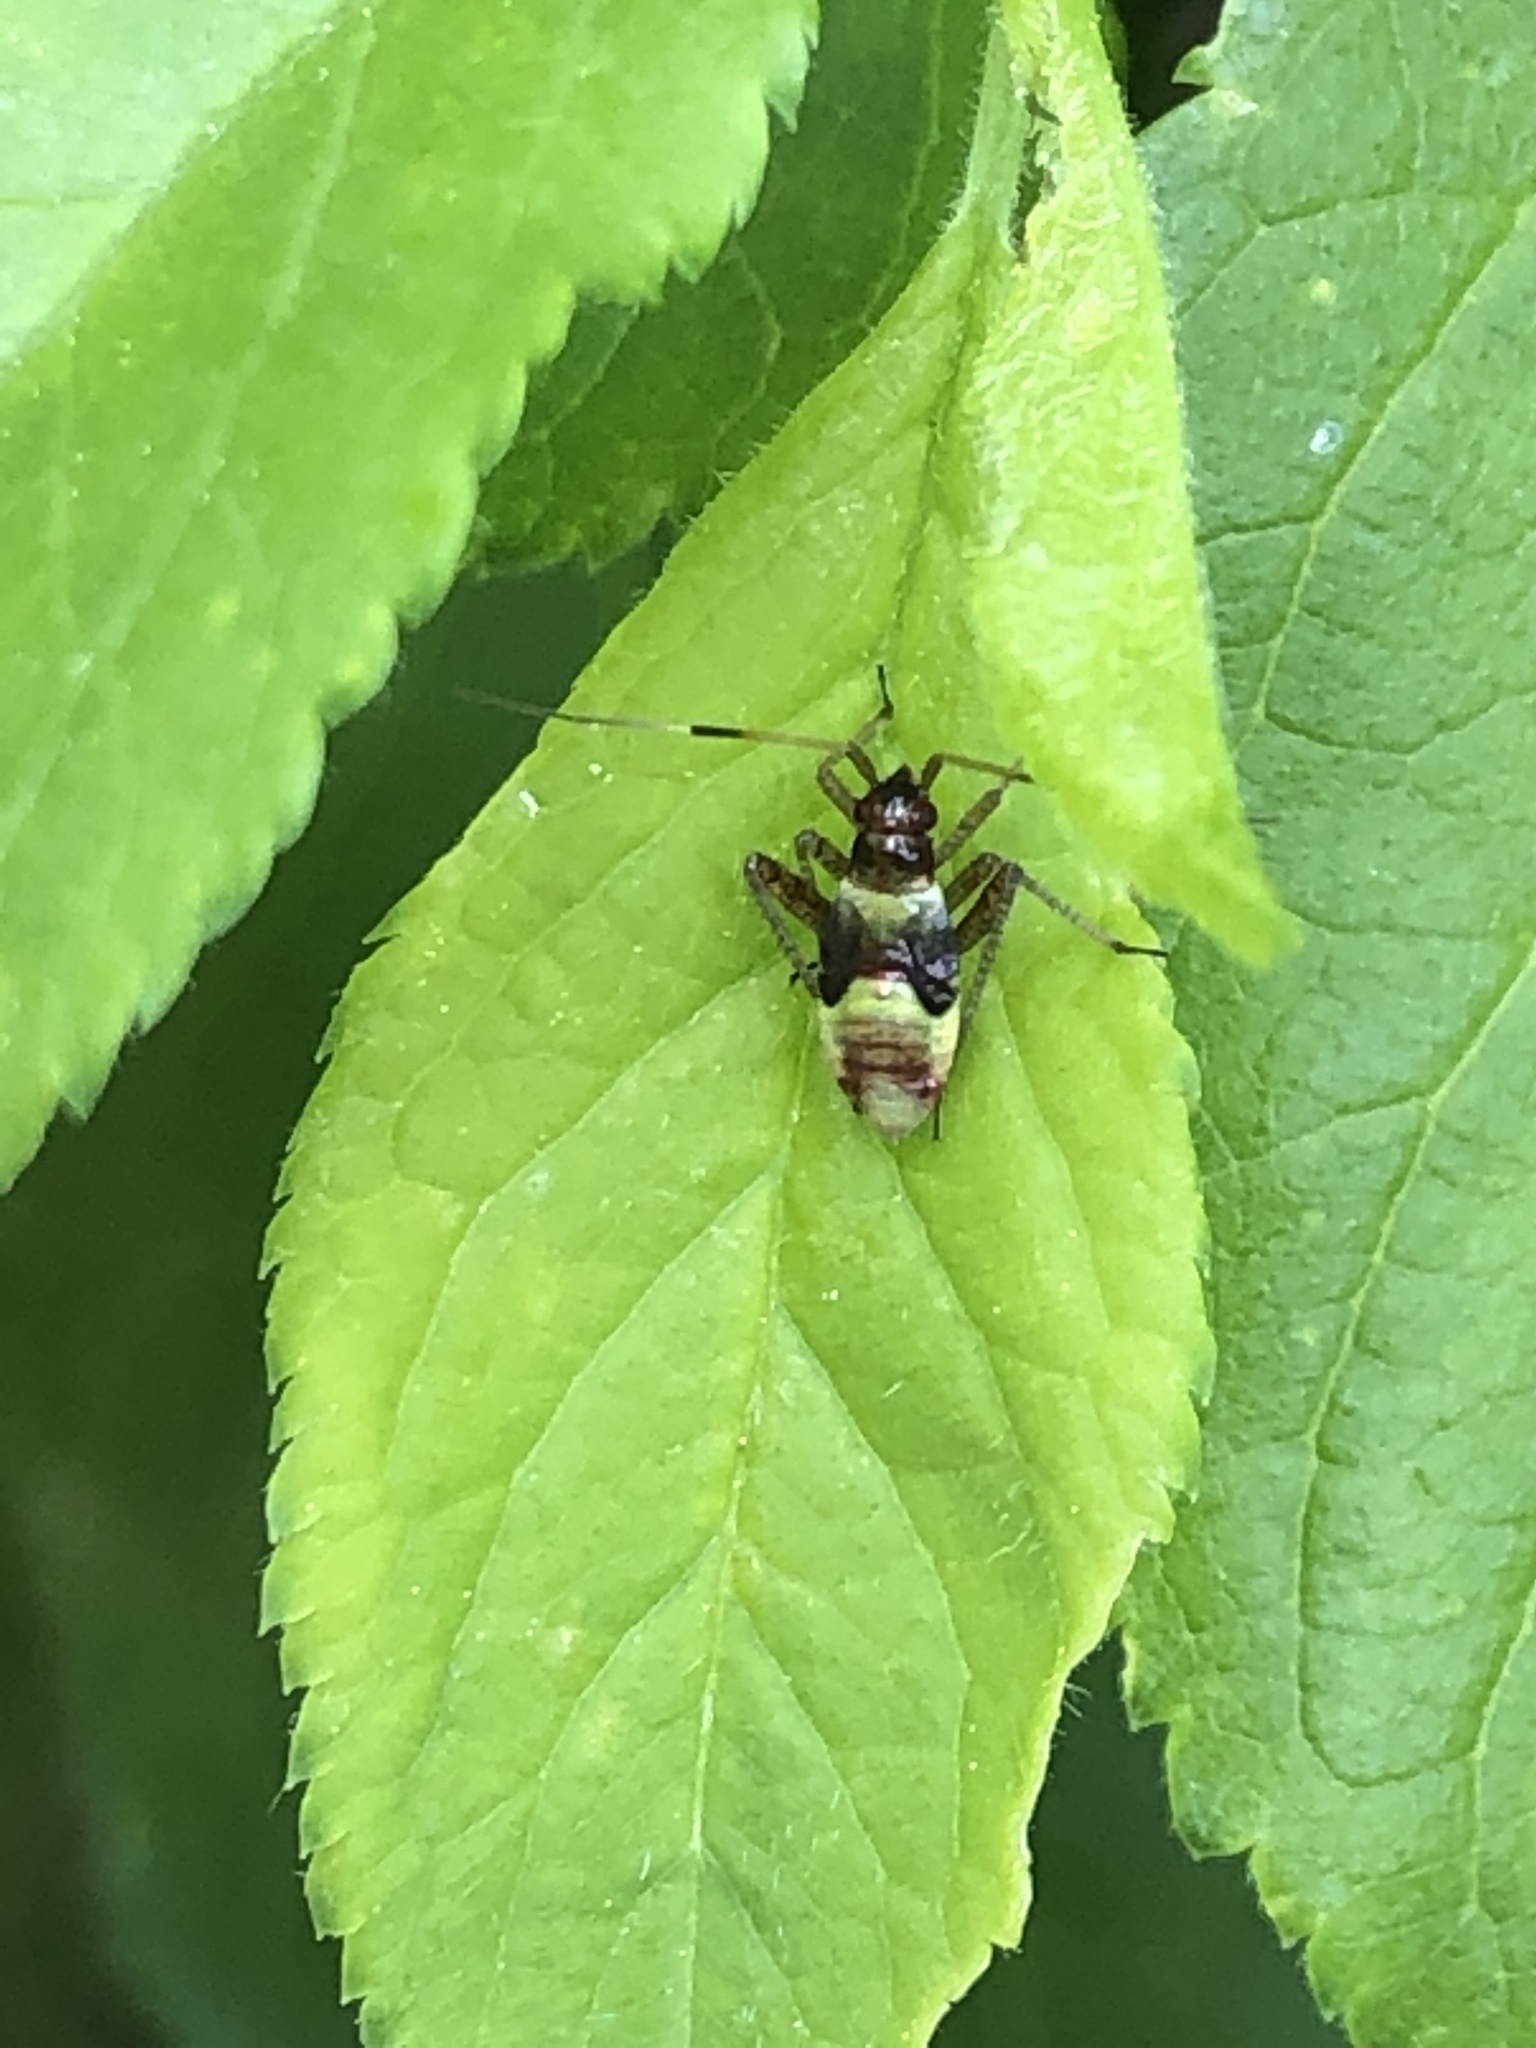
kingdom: Animalia
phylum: Arthropoda
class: Insecta
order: Hemiptera
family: Miridae
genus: Closterotomus
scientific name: Closterotomus fulvomaculatus
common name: Spotted plant bug
